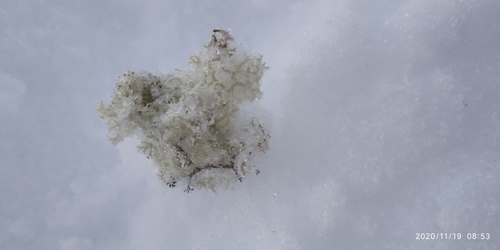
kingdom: Fungi
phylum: Ascomycota
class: Lecanoromycetes
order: Lecanorales
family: Cladoniaceae
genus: Cladonia
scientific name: Cladonia portentosa
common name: Reindeer lichen
